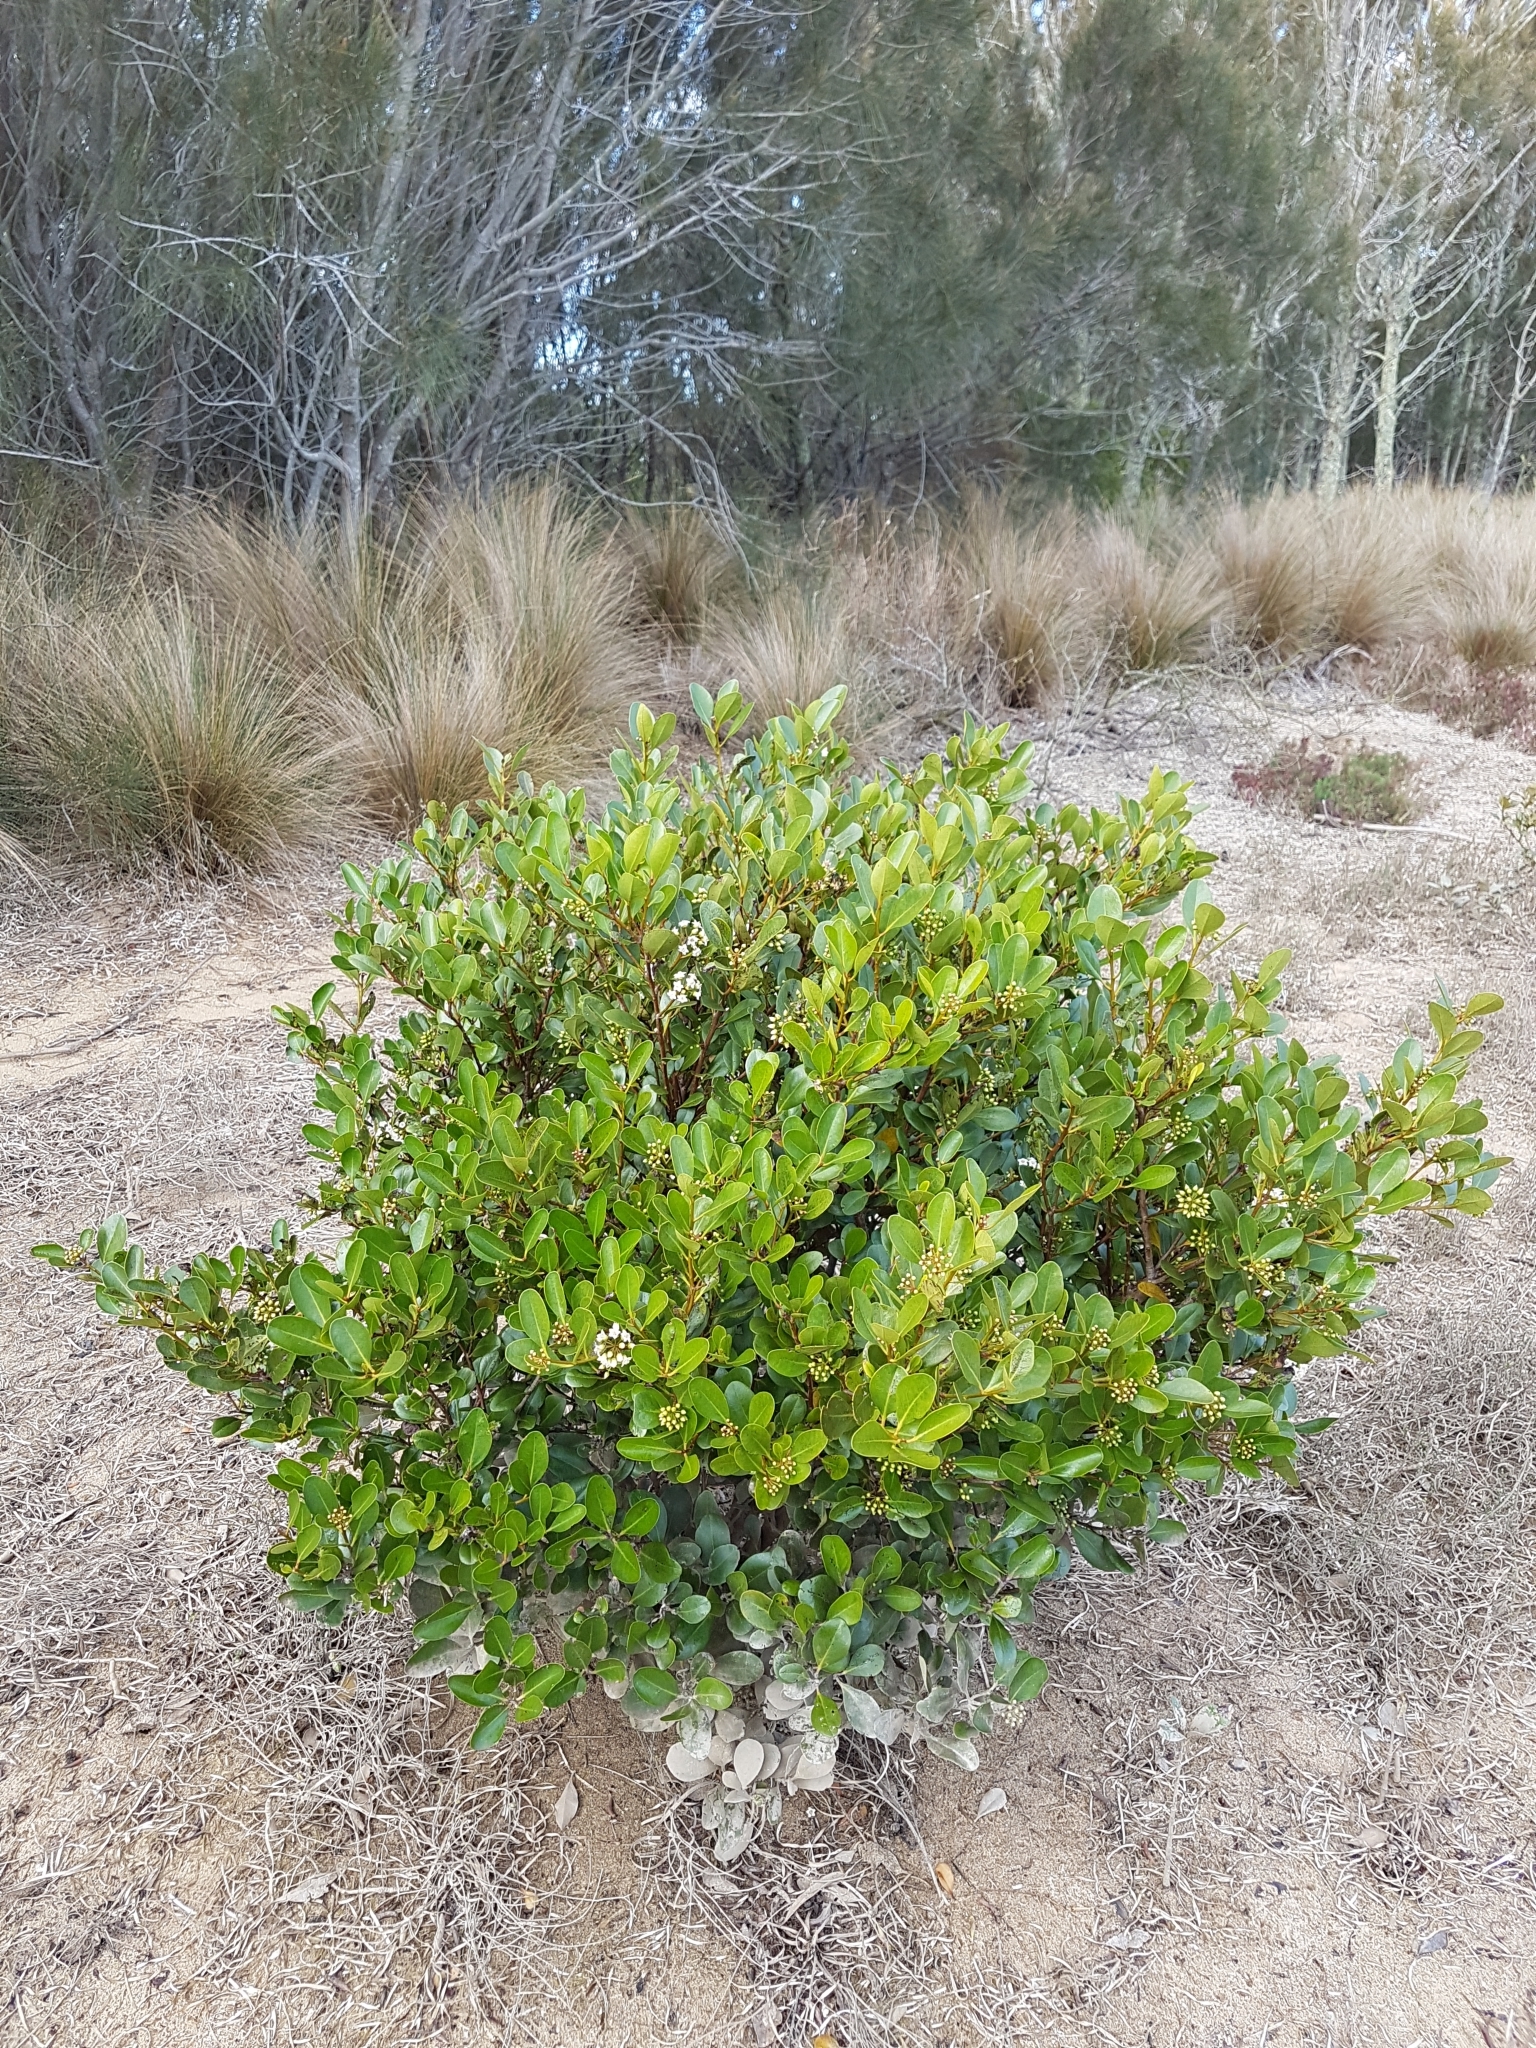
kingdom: Plantae
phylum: Tracheophyta
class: Magnoliopsida
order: Ericales
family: Primulaceae
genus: Aegiceras
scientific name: Aegiceras corniculatum
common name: River mangrove
